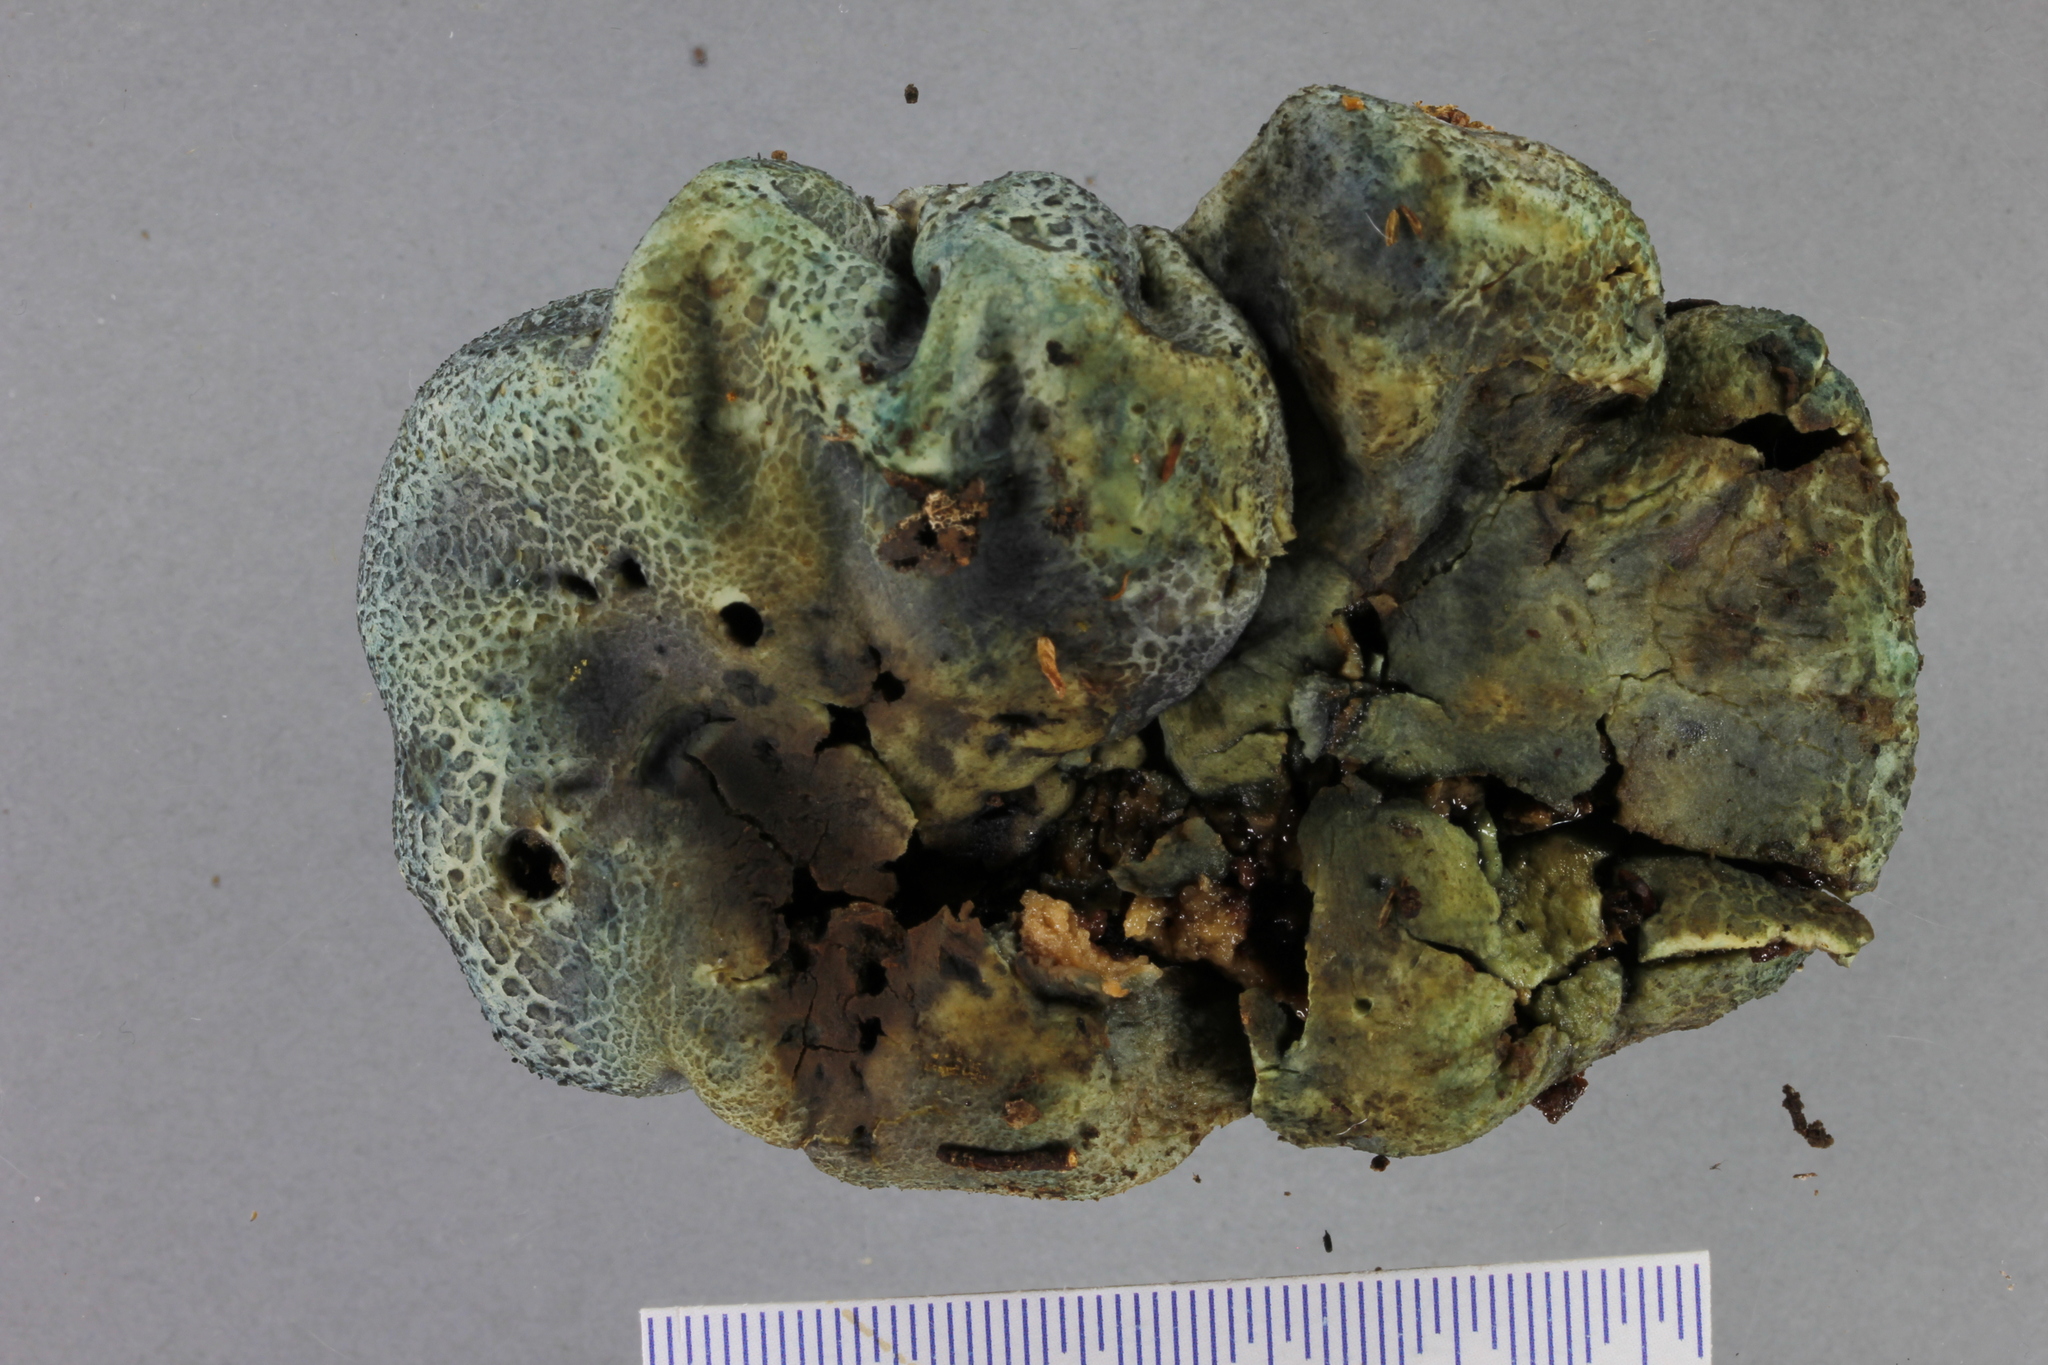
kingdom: Fungi
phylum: Basidiomycota
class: Agaricomycetes
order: Boletales
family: Boletaceae
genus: Leccinum
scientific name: Leccinum pachyderme
